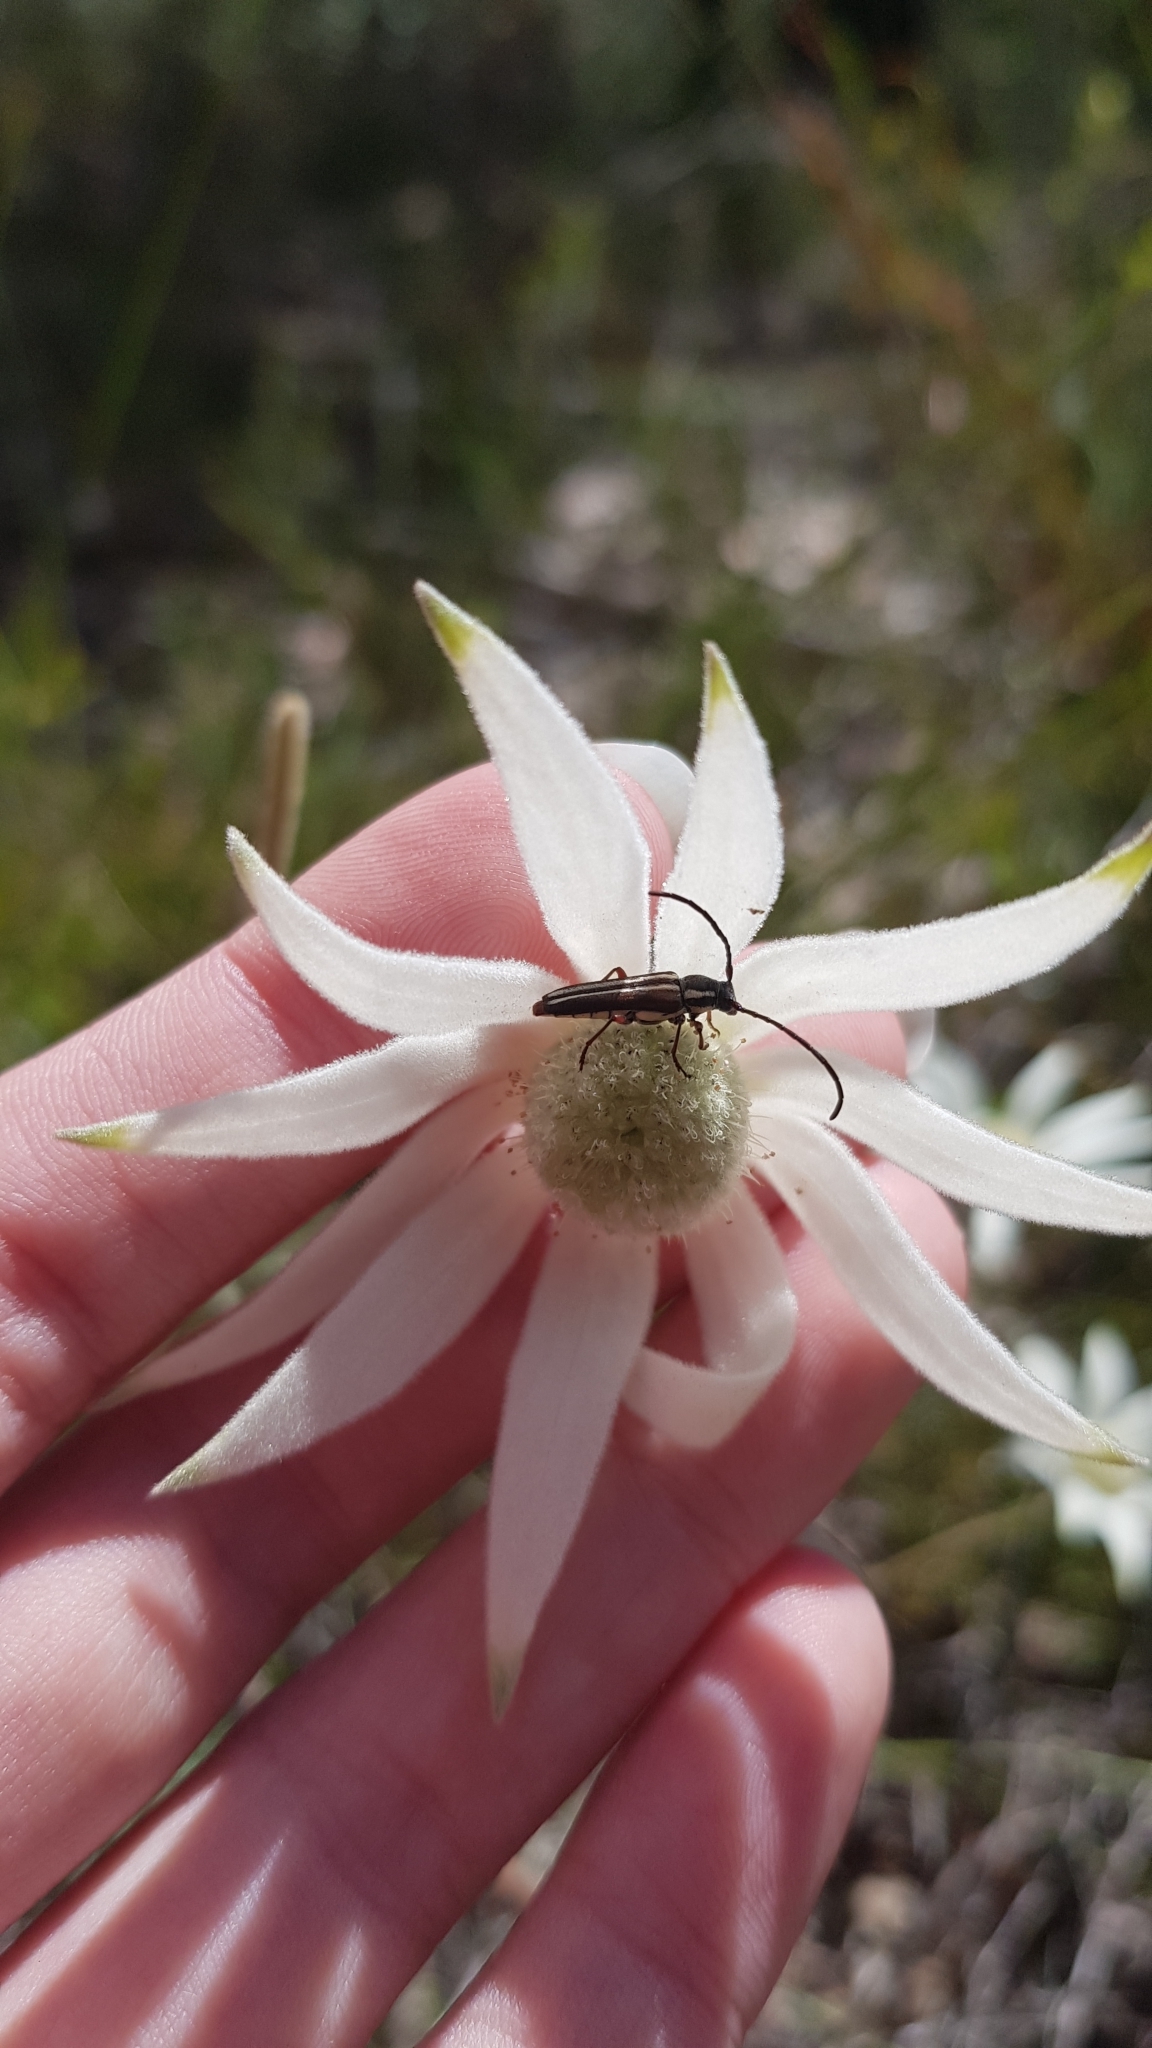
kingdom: Plantae
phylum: Tracheophyta
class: Magnoliopsida
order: Apiales
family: Apiaceae
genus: Actinotus
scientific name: Actinotus helianthi
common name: Flannel-flower
